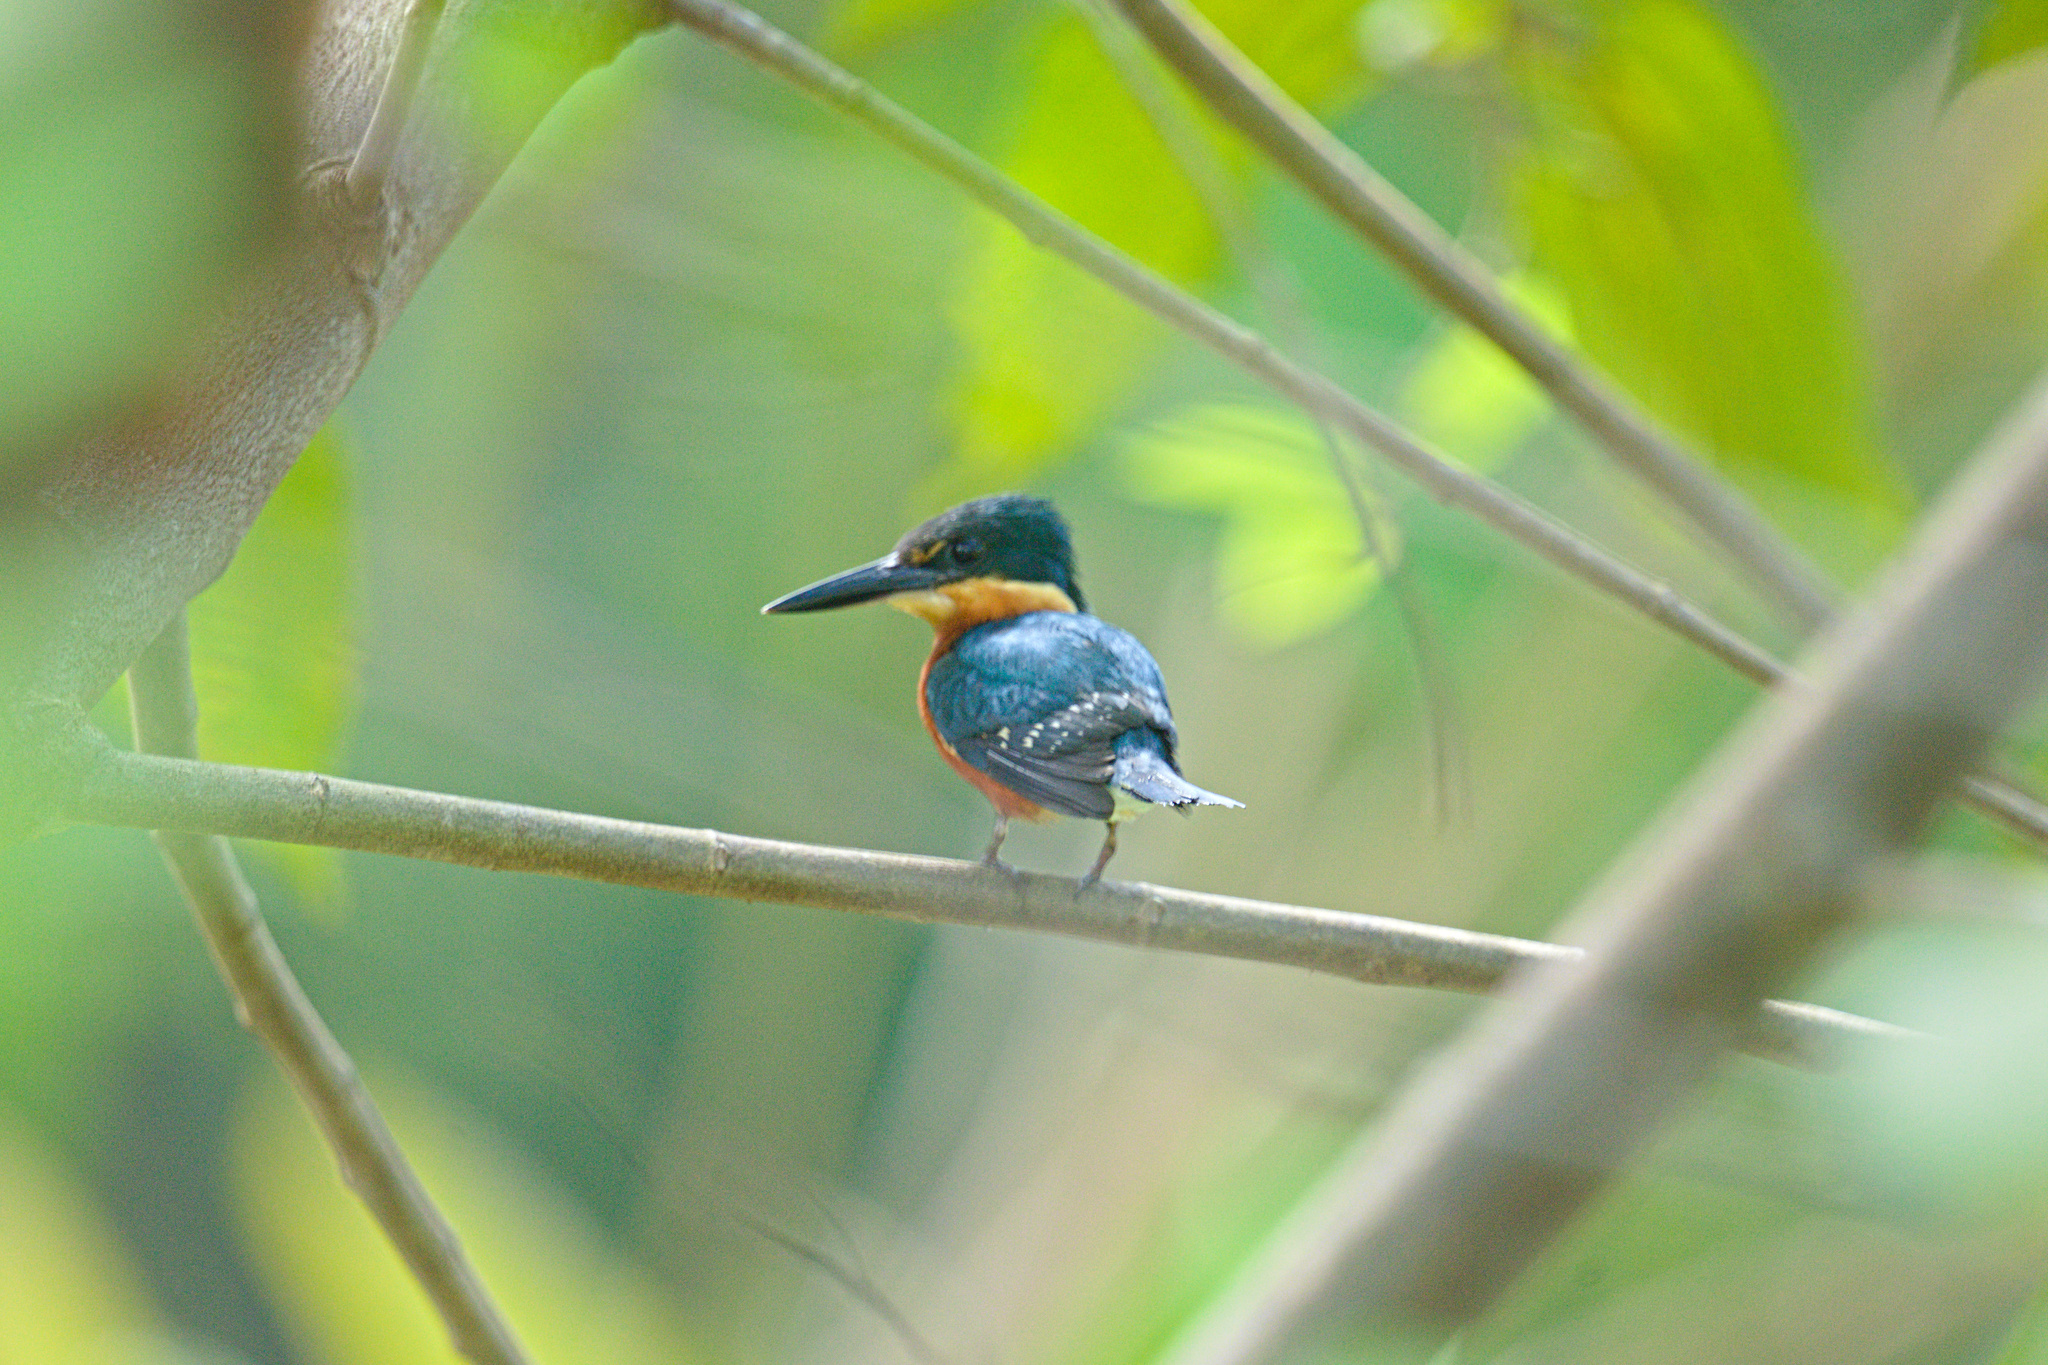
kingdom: Animalia
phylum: Chordata
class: Aves
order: Coraciiformes
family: Alcedinidae
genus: Chloroceryle
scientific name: Chloroceryle aenea
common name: American pygmy kingfisher
